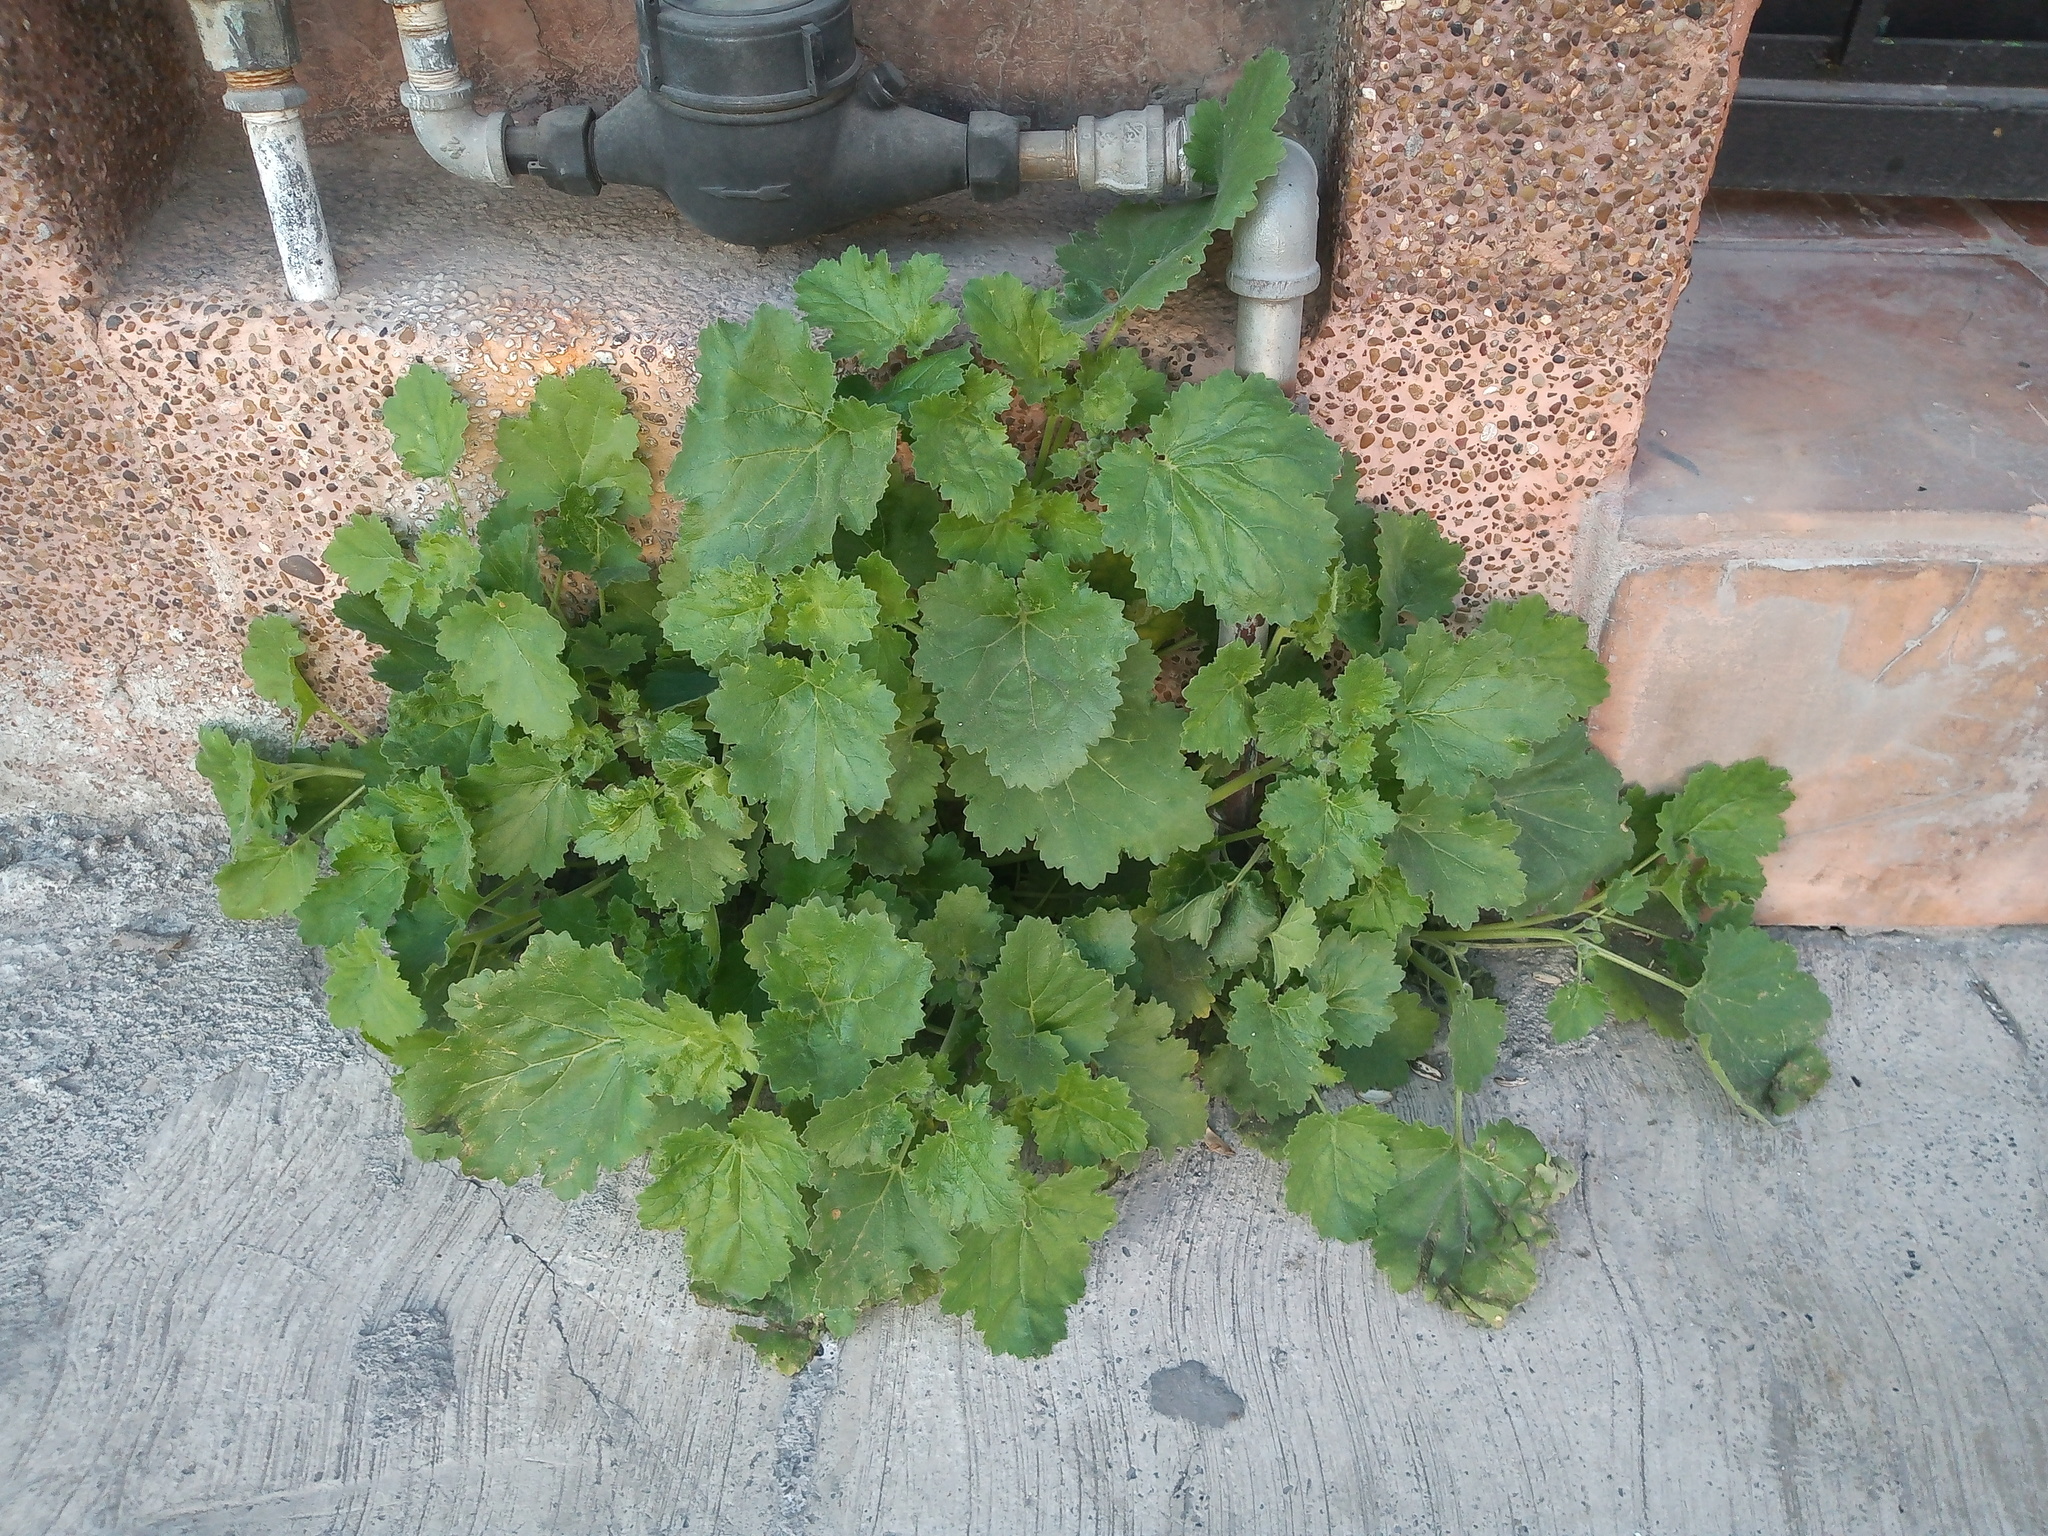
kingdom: Plantae
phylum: Tracheophyta
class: Magnoliopsida
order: Cornales
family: Loasaceae
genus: Eucnide
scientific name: Eucnide lobata
